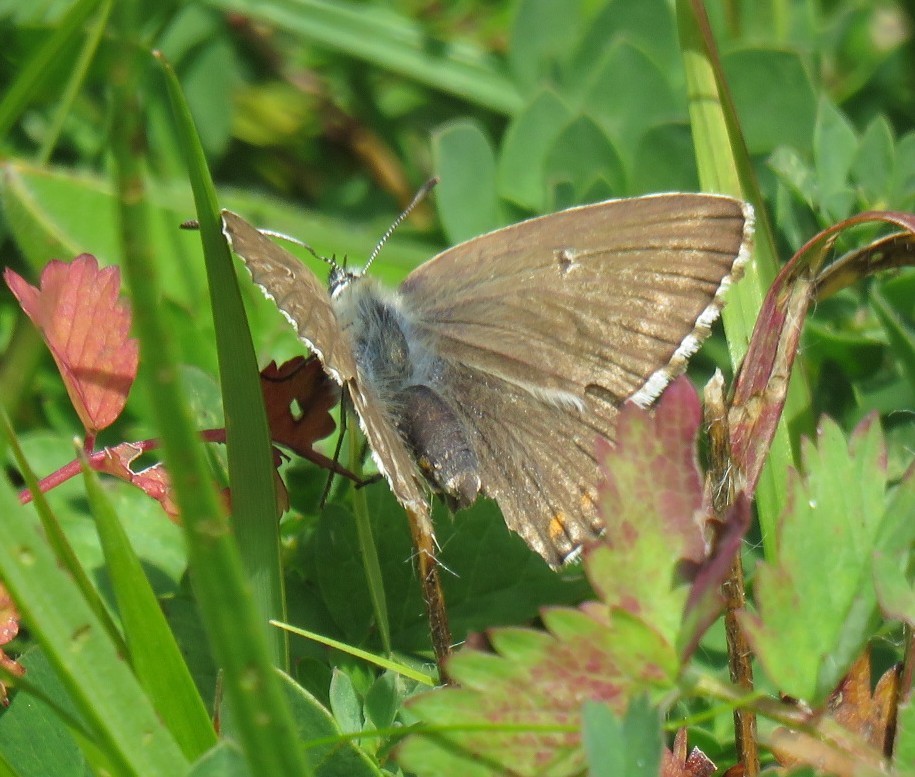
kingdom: Animalia
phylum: Arthropoda
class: Insecta
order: Lepidoptera
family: Lycaenidae
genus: Lysandra
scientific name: Lysandra coridon
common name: Chalkhill blue
